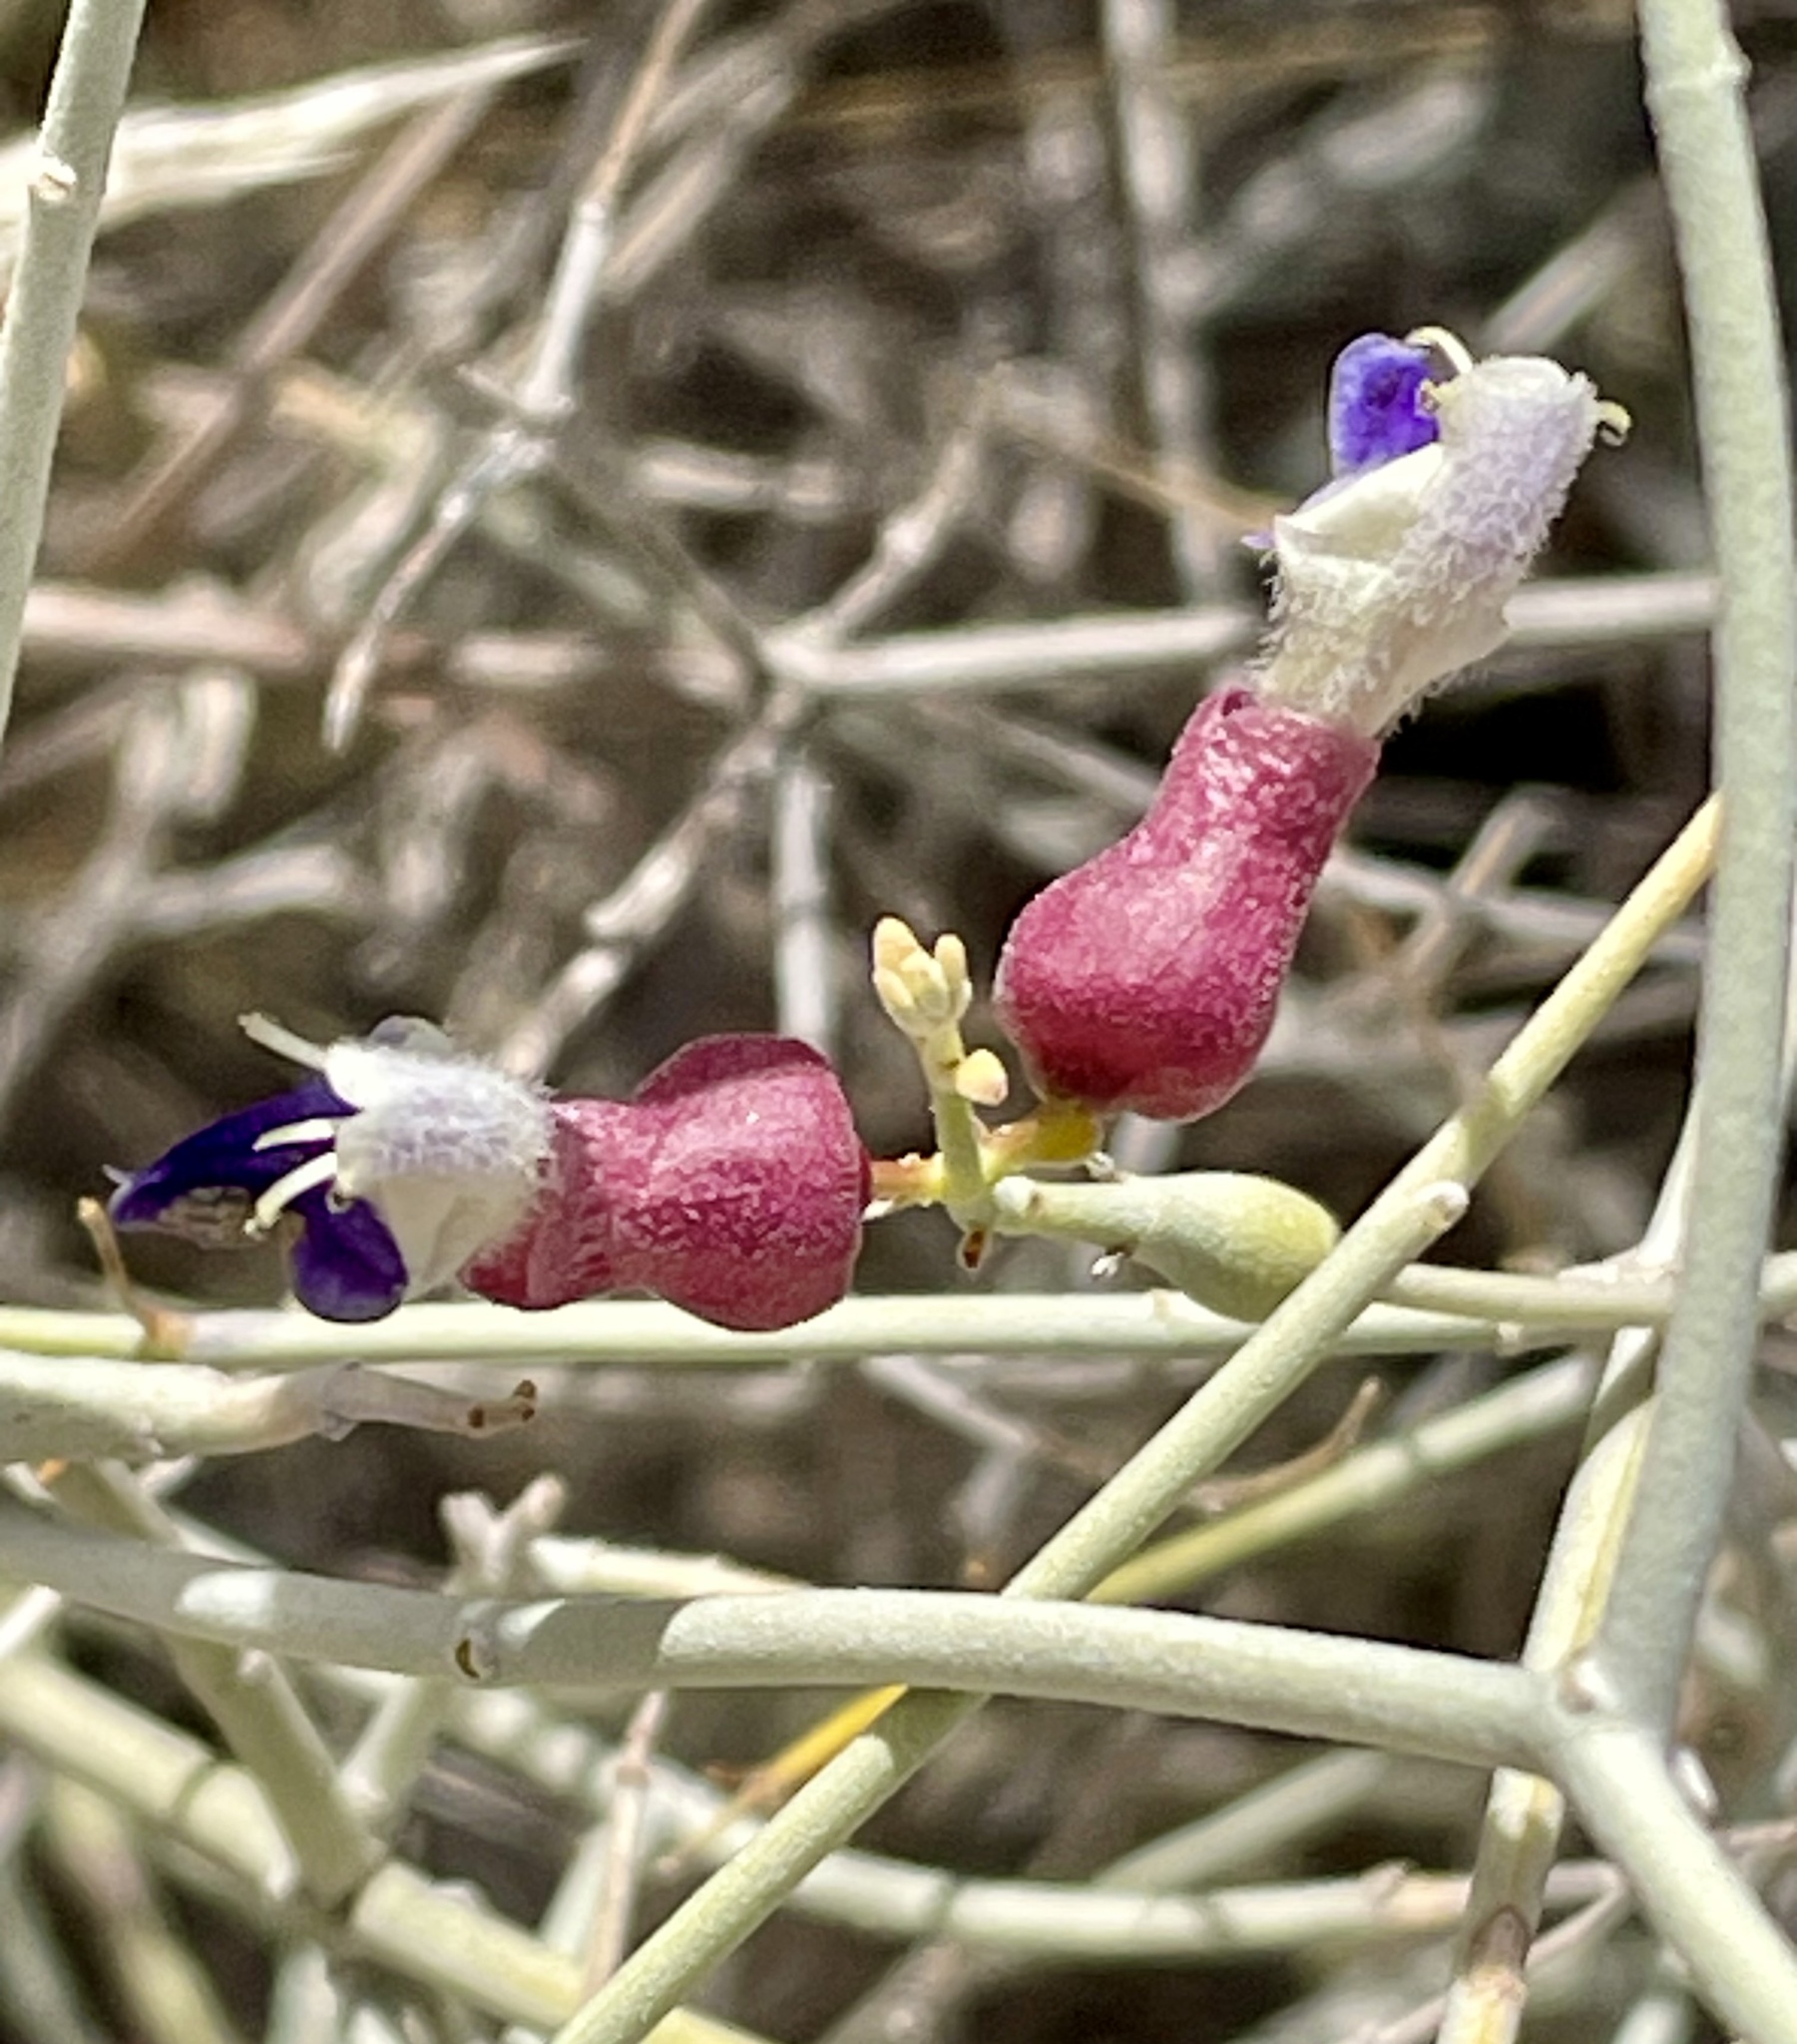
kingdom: Plantae
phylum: Tracheophyta
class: Magnoliopsida
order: Lamiales
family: Lamiaceae
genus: Scutellaria
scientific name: Scutellaria mexicana
